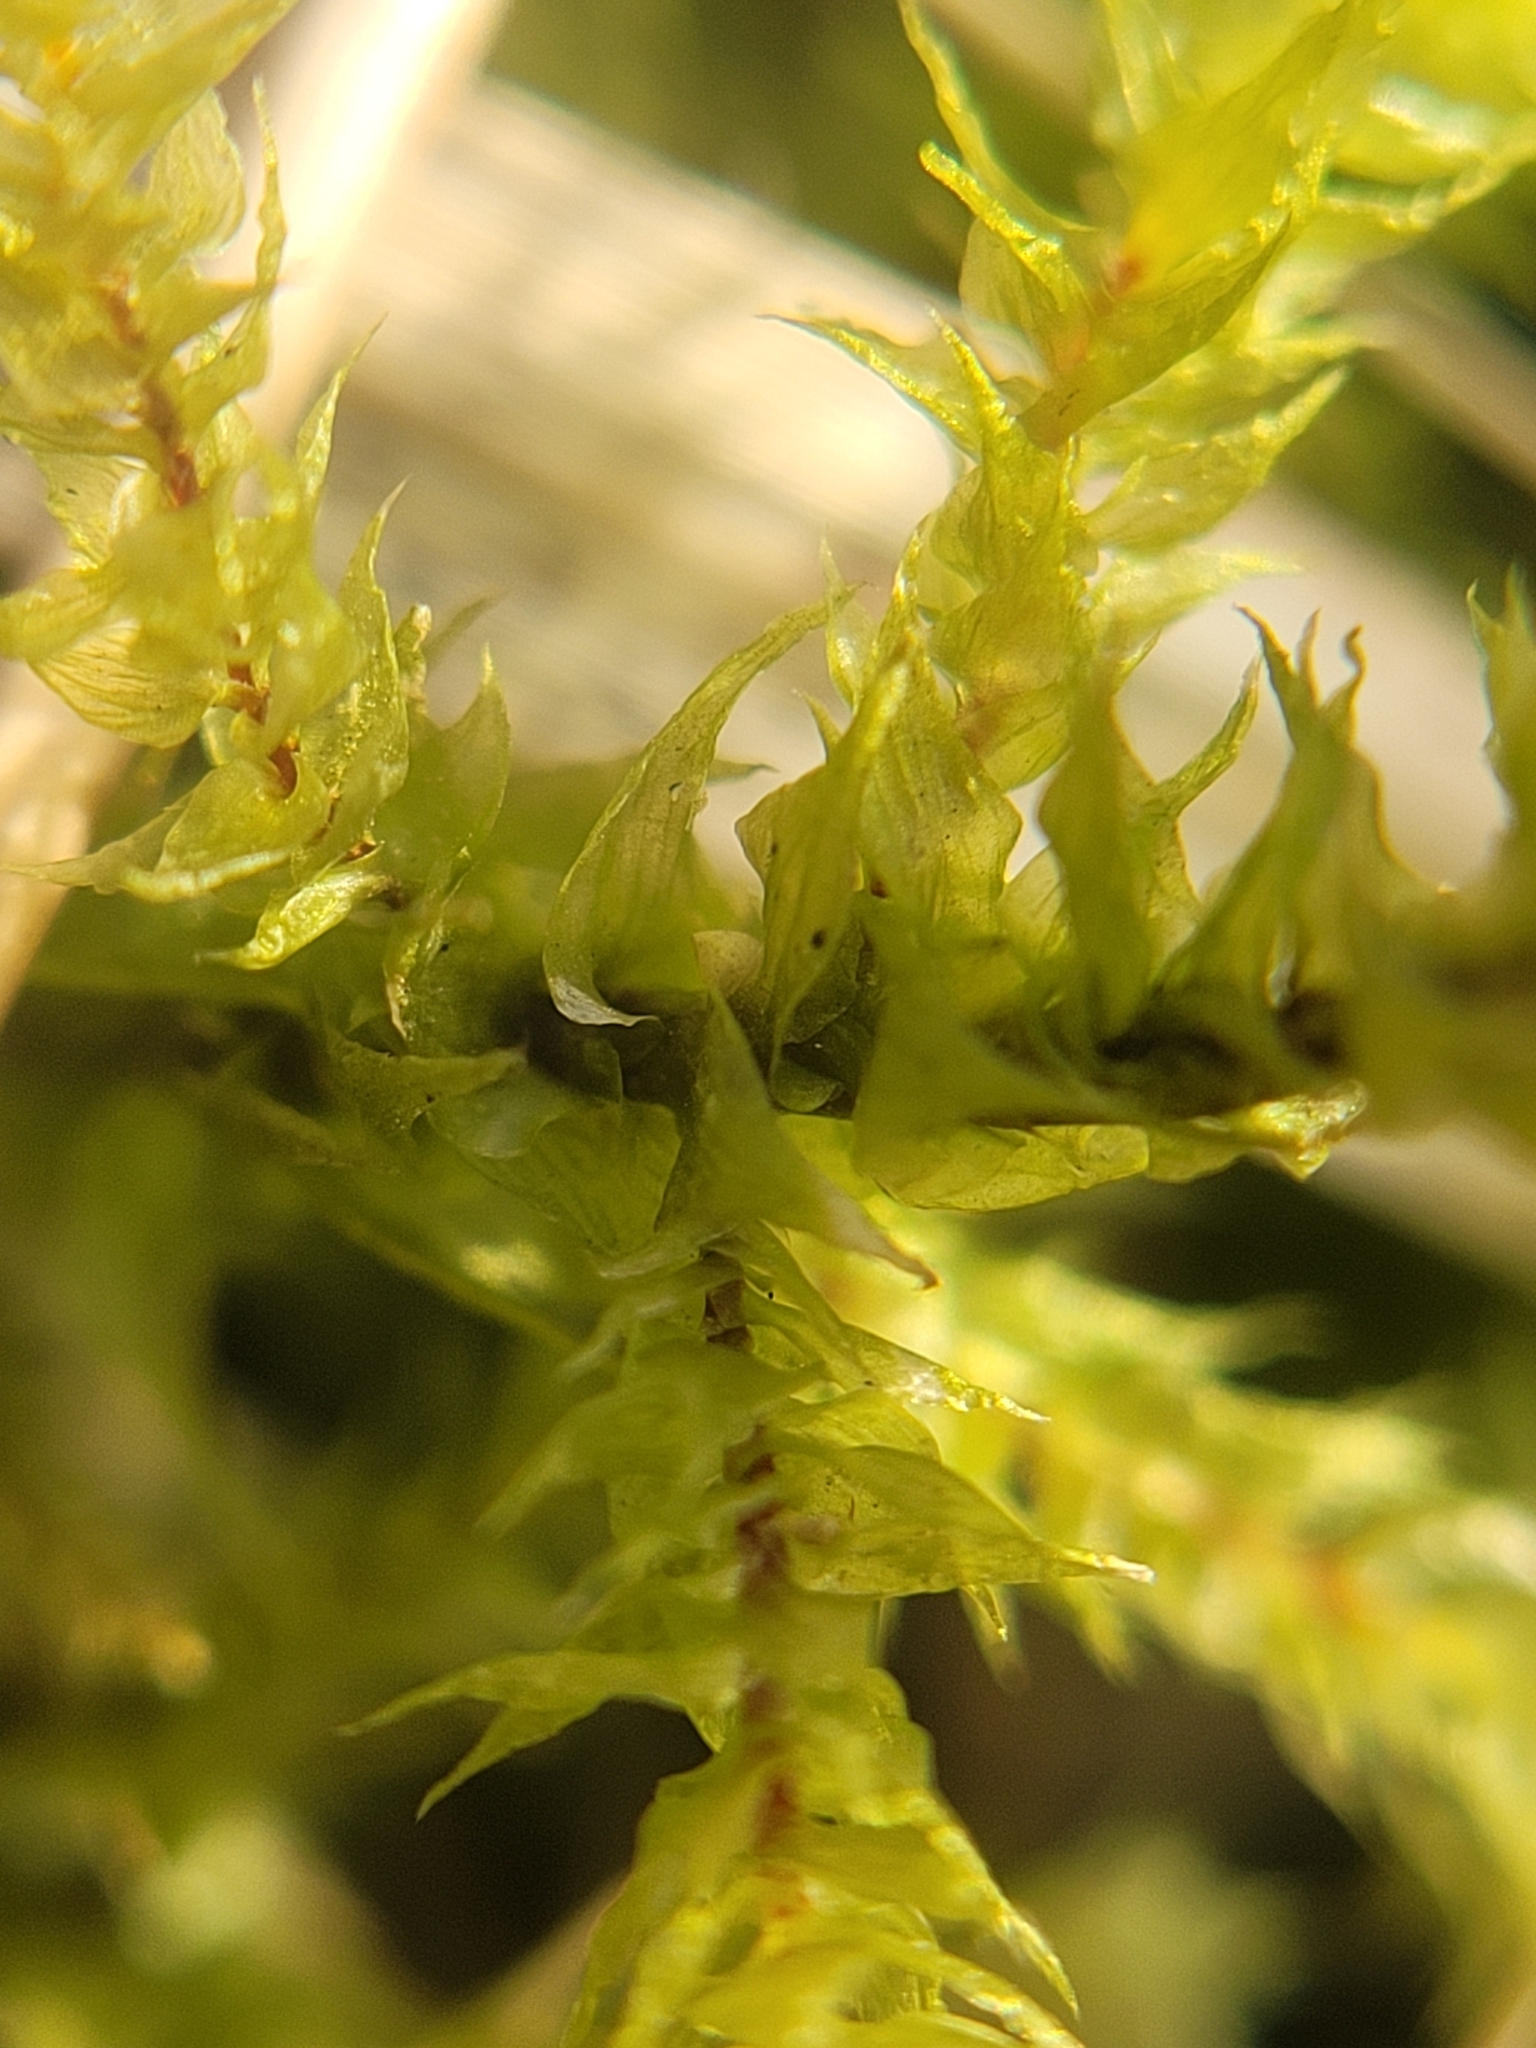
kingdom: Plantae
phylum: Bryophyta
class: Bryopsida
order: Hypnales
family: Hylocomiaceae
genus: Hylocomiadelphus
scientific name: Hylocomiadelphus triquetrus
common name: Rough goose neck moss
